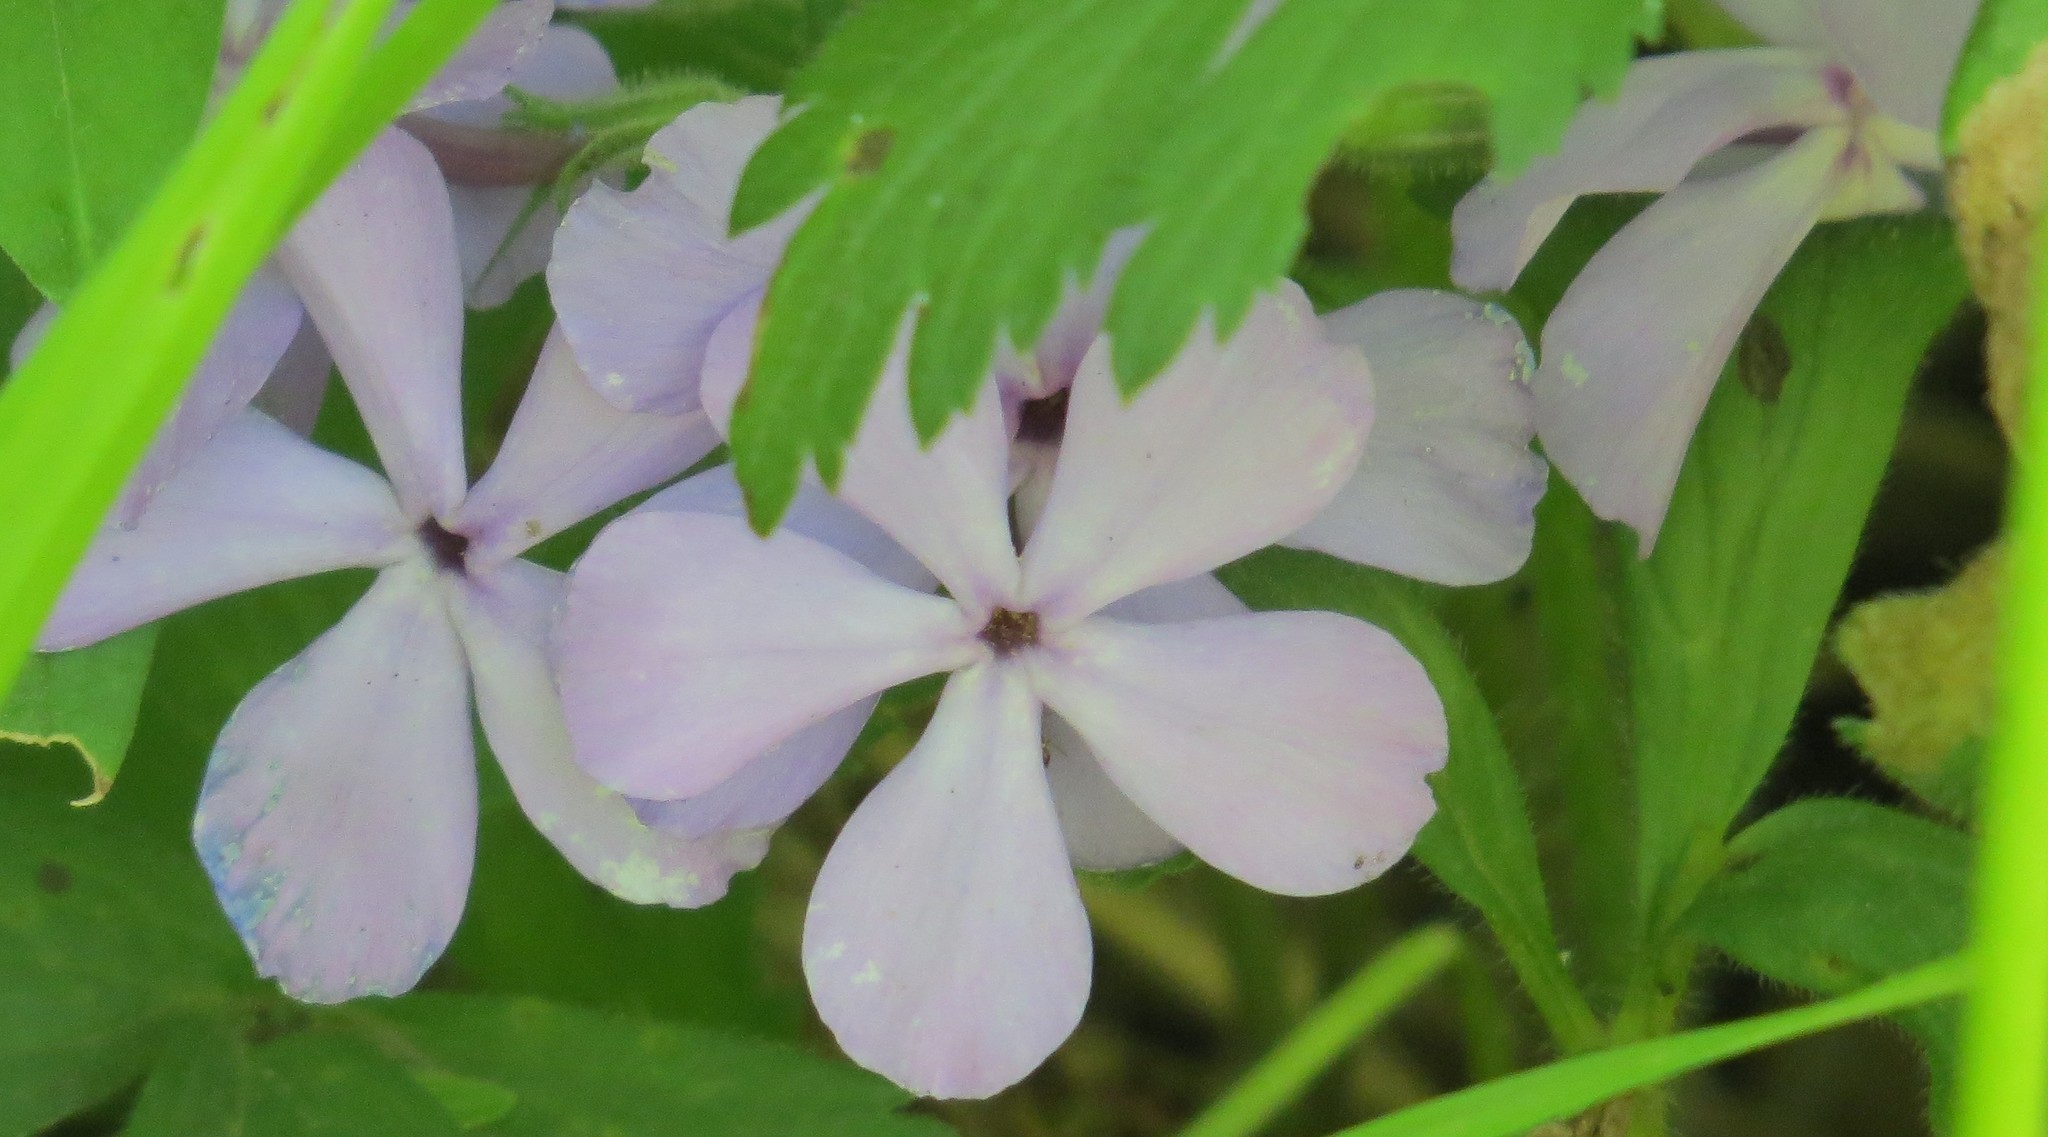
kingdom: Plantae
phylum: Tracheophyta
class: Magnoliopsida
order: Ericales
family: Polemoniaceae
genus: Phlox
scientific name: Phlox divaricata
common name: Blue phlox
